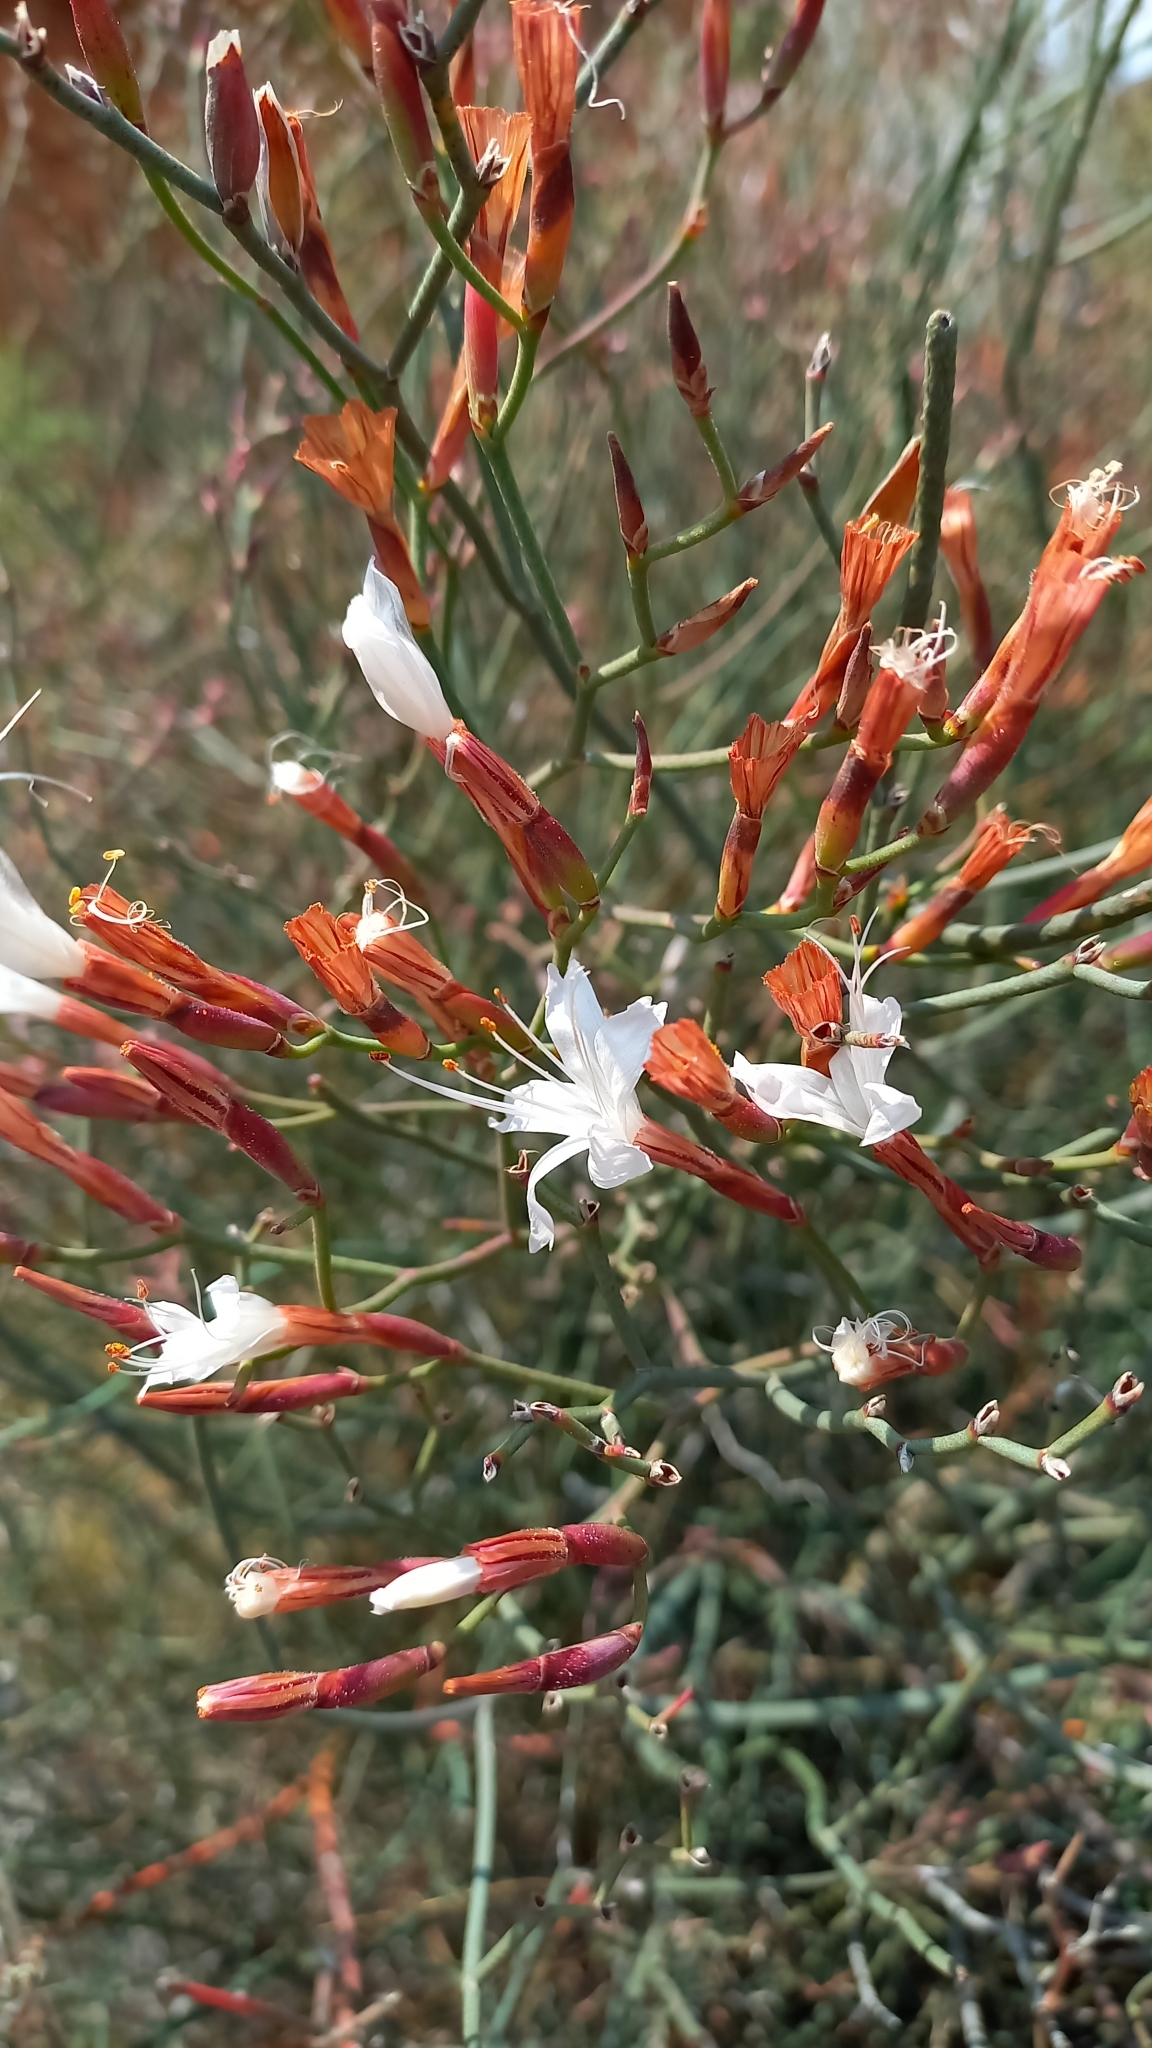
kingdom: Plantae
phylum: Tracheophyta
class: Magnoliopsida
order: Caryophyllales
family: Plumbaginaceae
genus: Limonium
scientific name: Limonium longifolium
